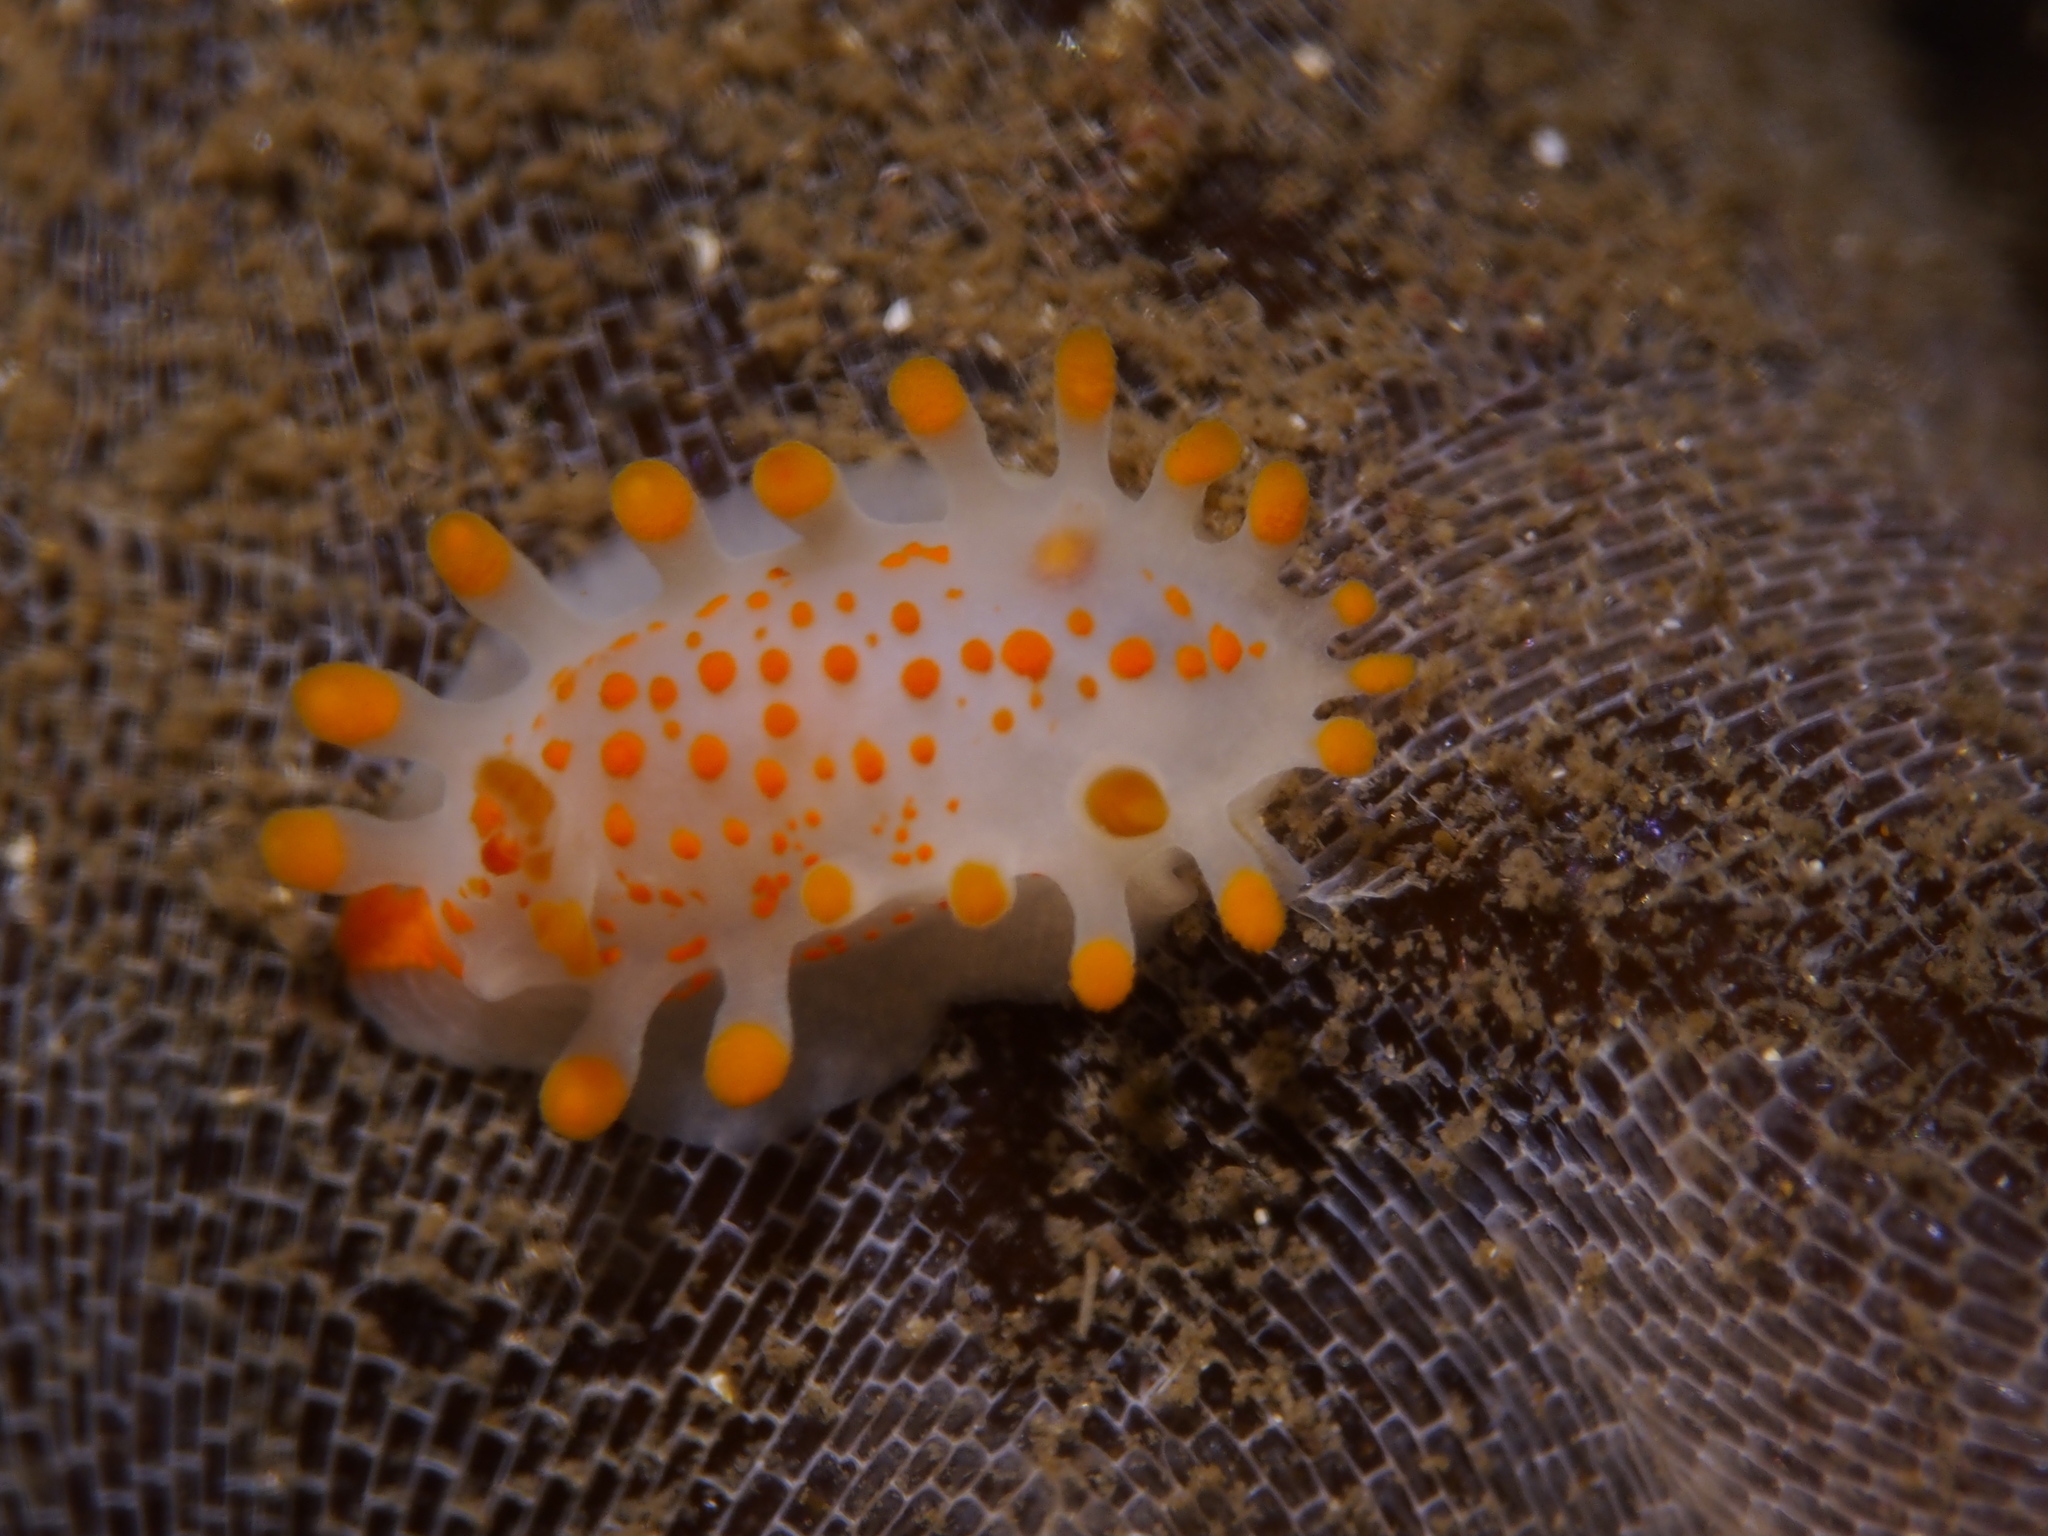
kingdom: Animalia
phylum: Mollusca
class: Gastropoda
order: Nudibranchia
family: Polyceridae
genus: Limacia
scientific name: Limacia clavigera
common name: Orange-clubbed sea slug
